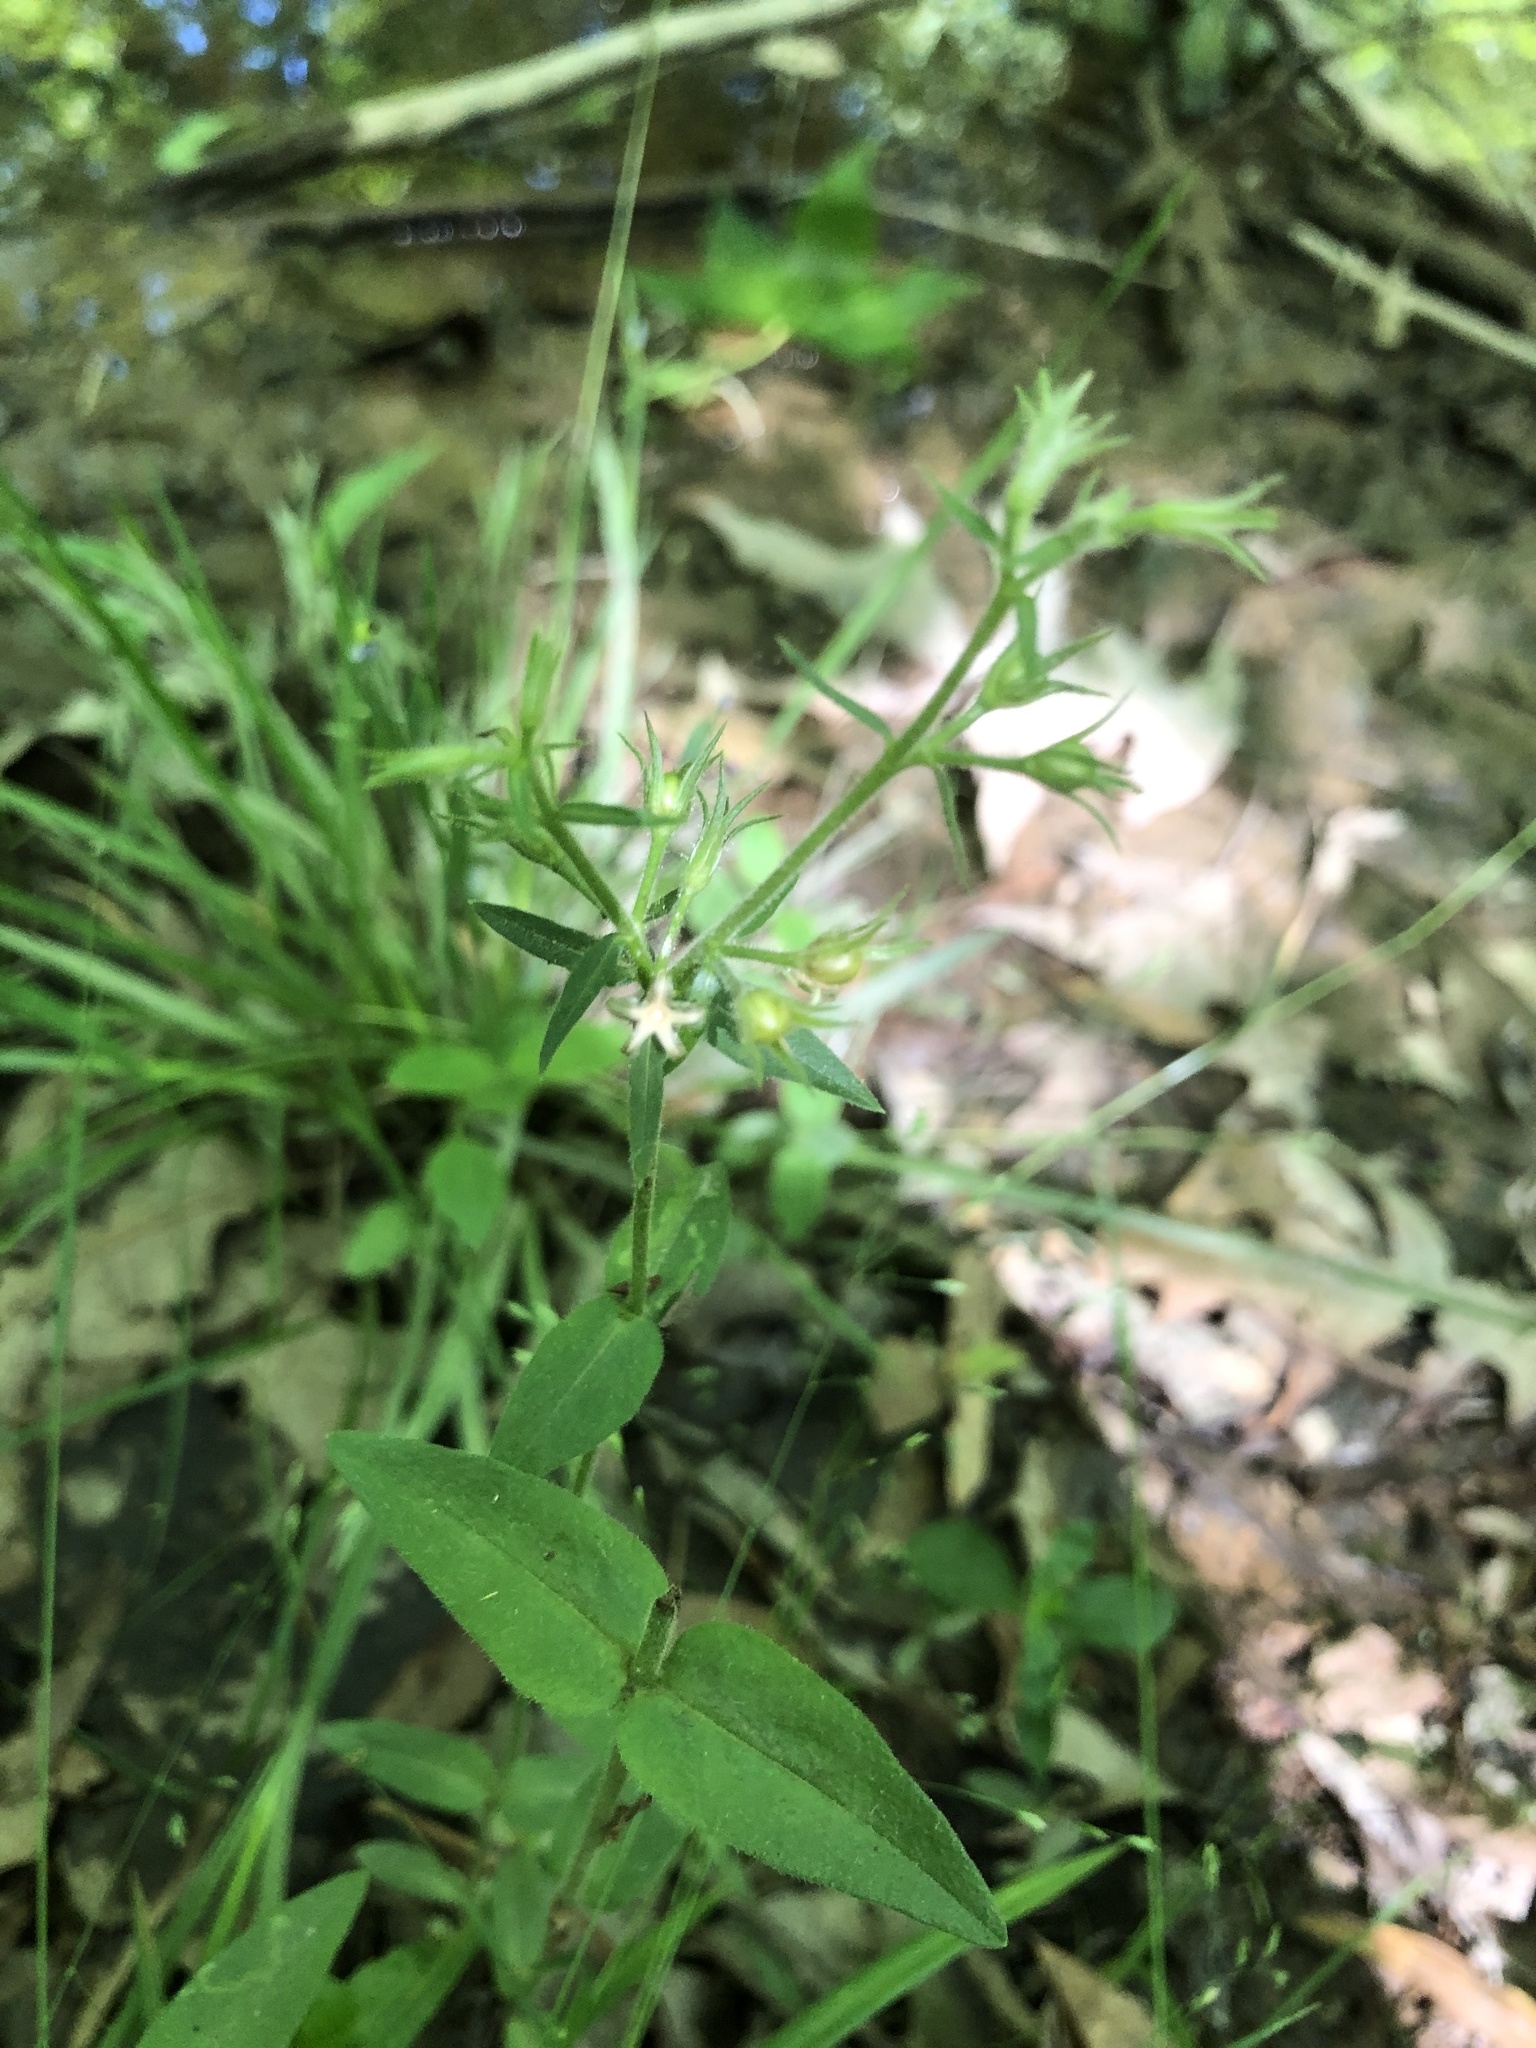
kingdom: Plantae
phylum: Tracheophyta
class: Magnoliopsida
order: Ericales
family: Polemoniaceae
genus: Phlox
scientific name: Phlox divaricata
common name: Blue phlox
